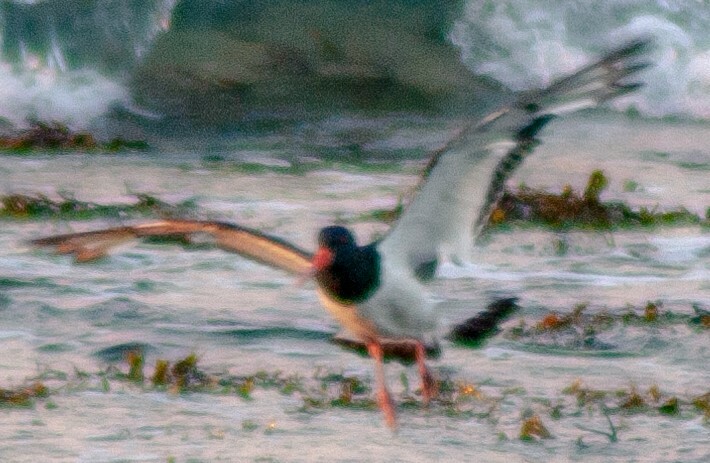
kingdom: Animalia
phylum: Chordata
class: Aves
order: Charadriiformes
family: Haematopodidae
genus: Haematopus
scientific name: Haematopus ostralegus
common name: Eurasian oystercatcher
